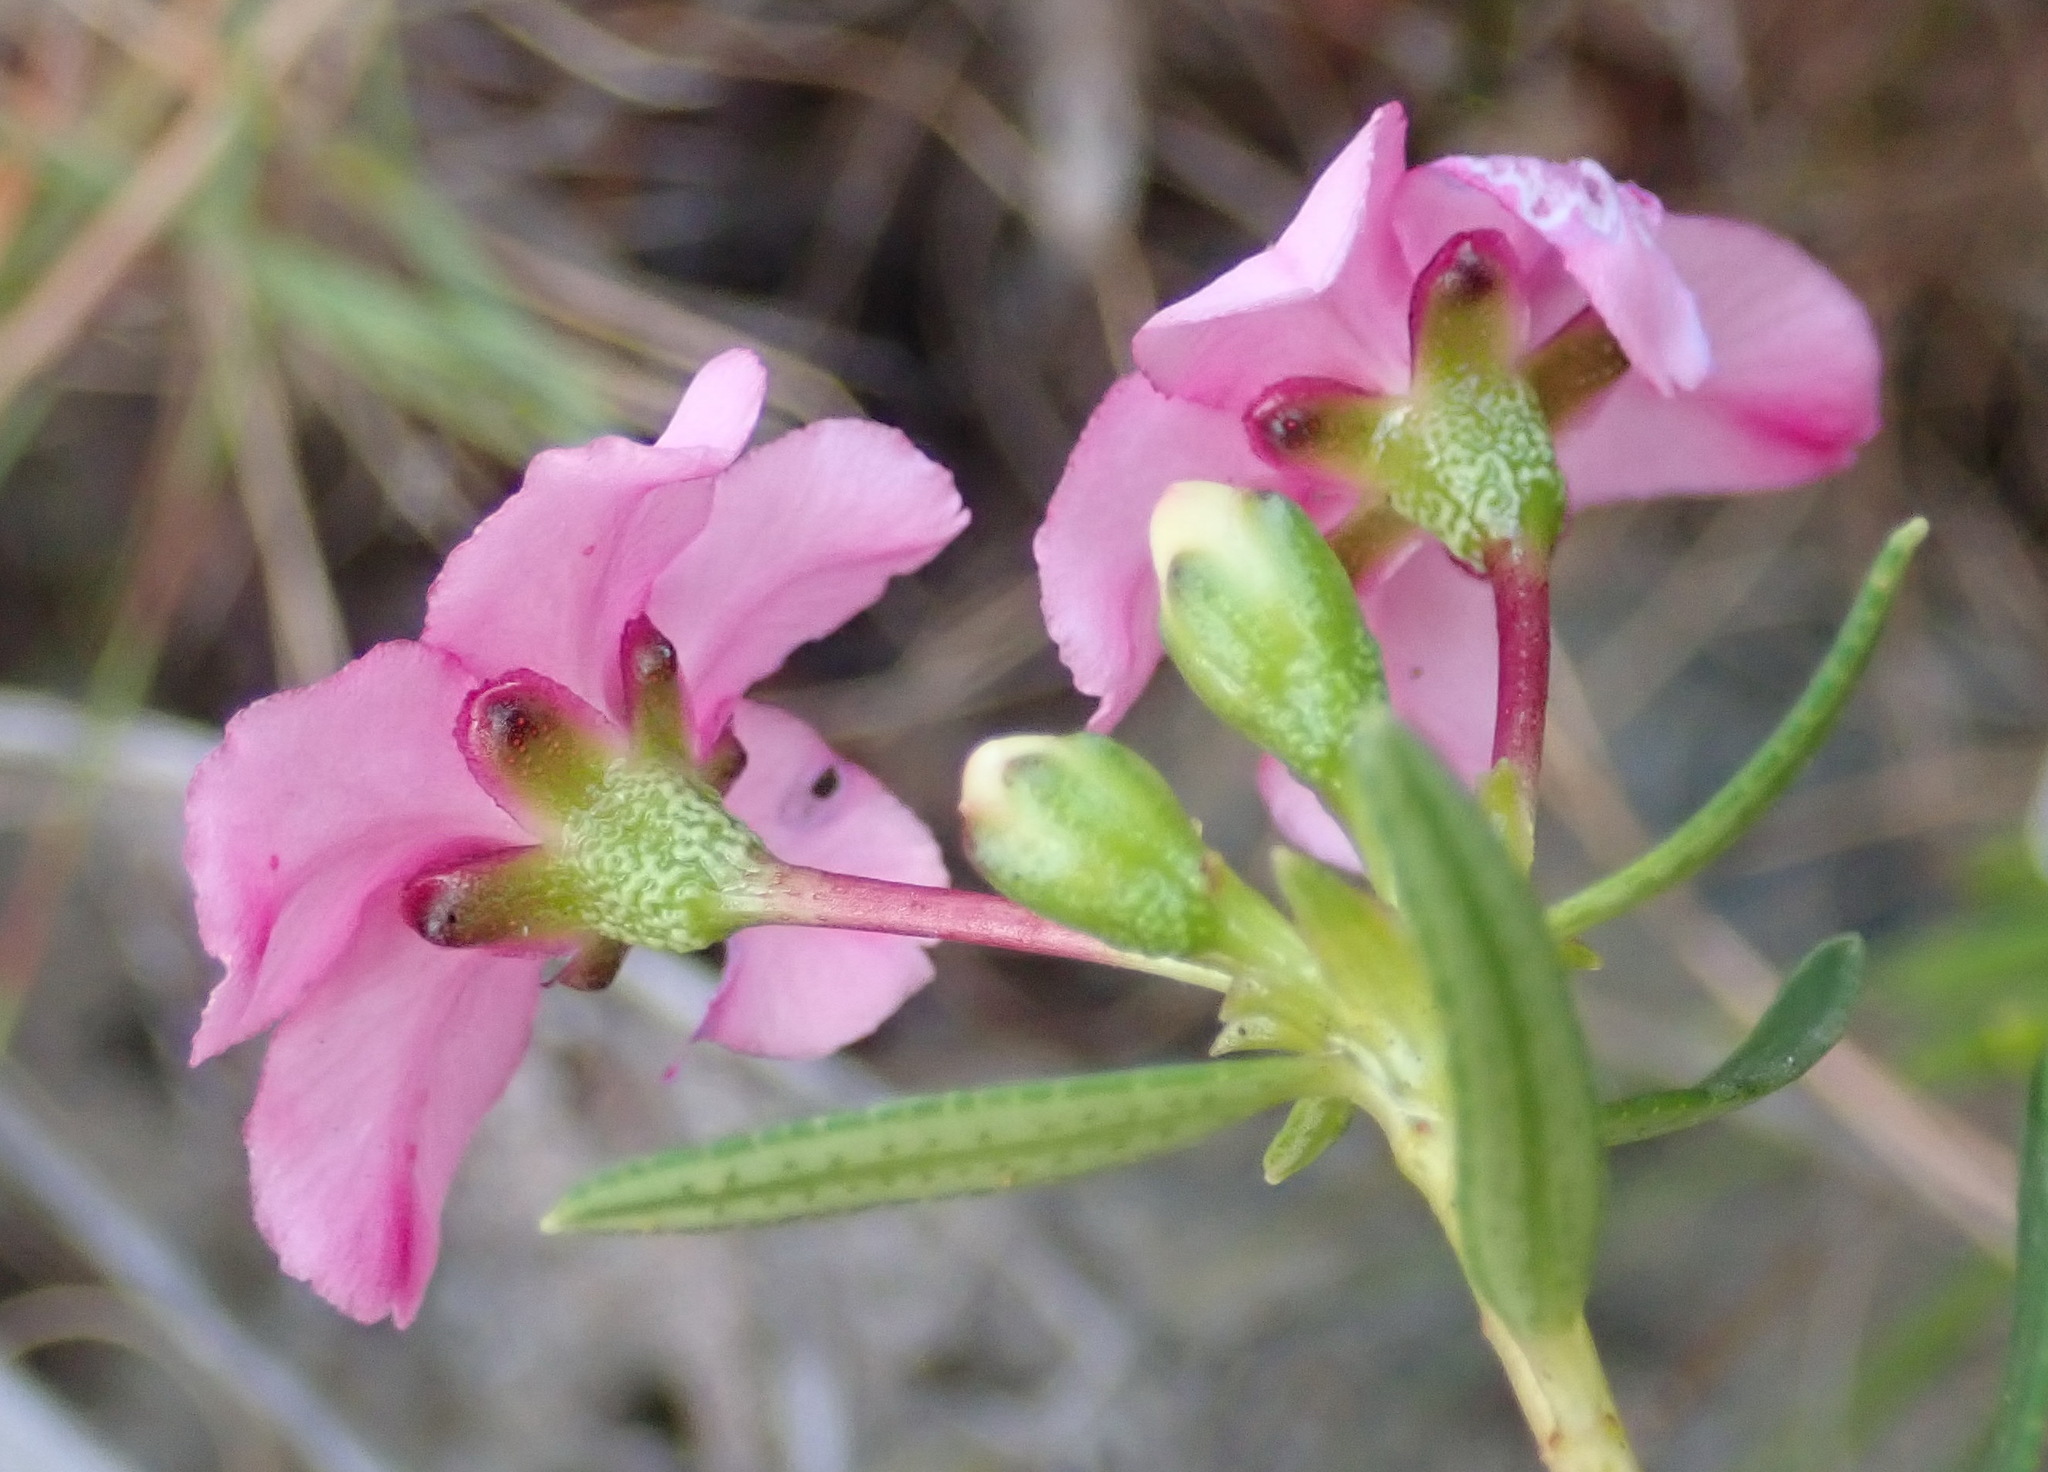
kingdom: Plantae
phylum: Tracheophyta
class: Magnoliopsida
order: Sapindales
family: Rutaceae
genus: Adenandra
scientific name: Adenandra fragrans
